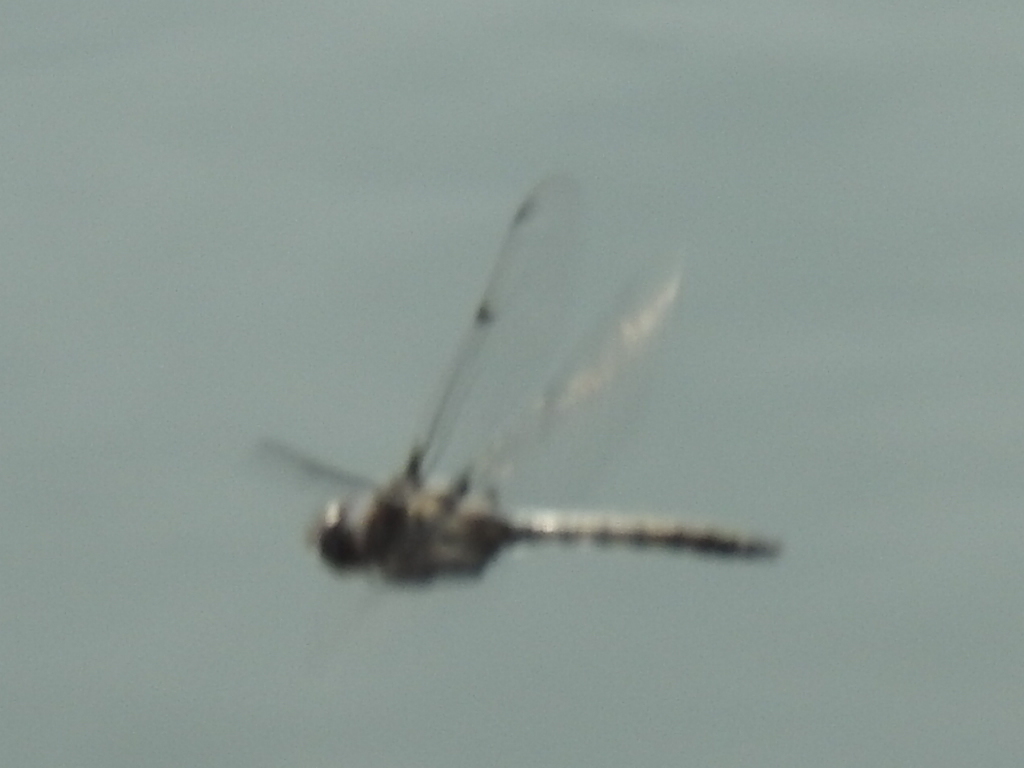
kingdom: Animalia
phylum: Arthropoda
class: Insecta
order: Odonata
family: Corduliidae
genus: Epitheca
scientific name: Epitheca petechialis
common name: Dot-winged baskettail
